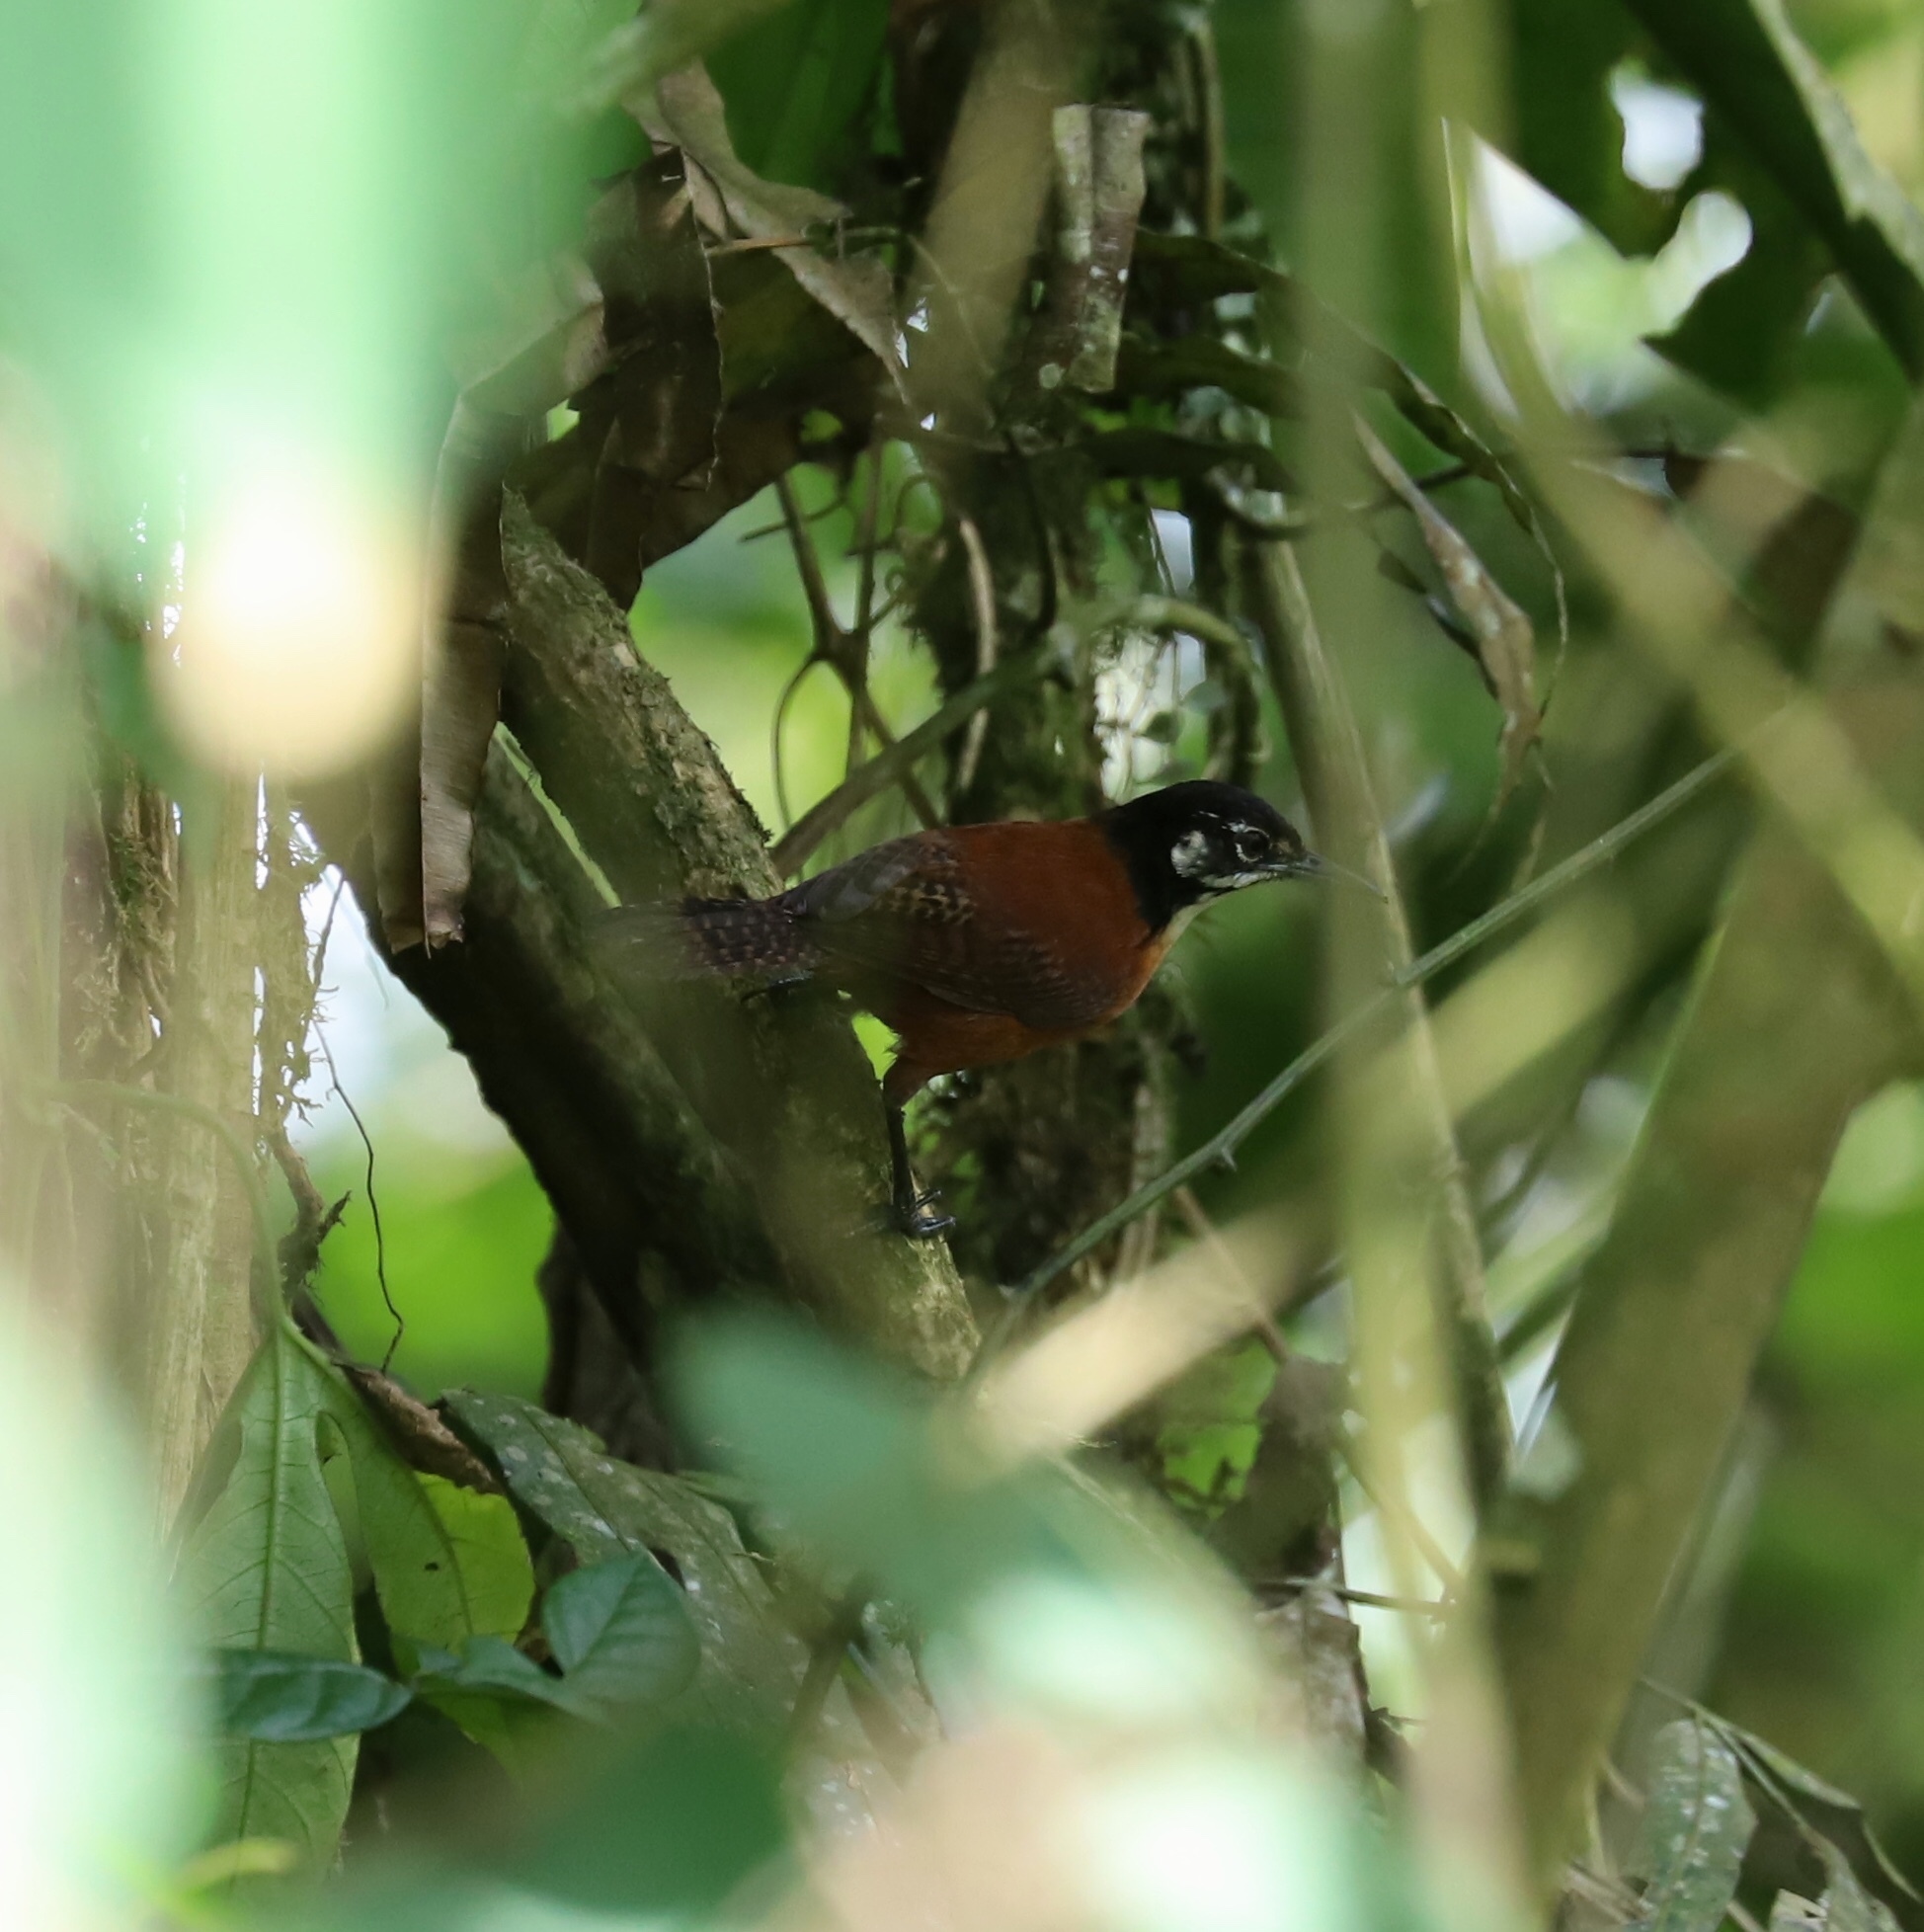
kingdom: Animalia
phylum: Chordata
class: Aves
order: Passeriformes
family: Troglodytidae
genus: Cantorchilus
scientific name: Cantorchilus nigricapillus
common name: Bay wren
